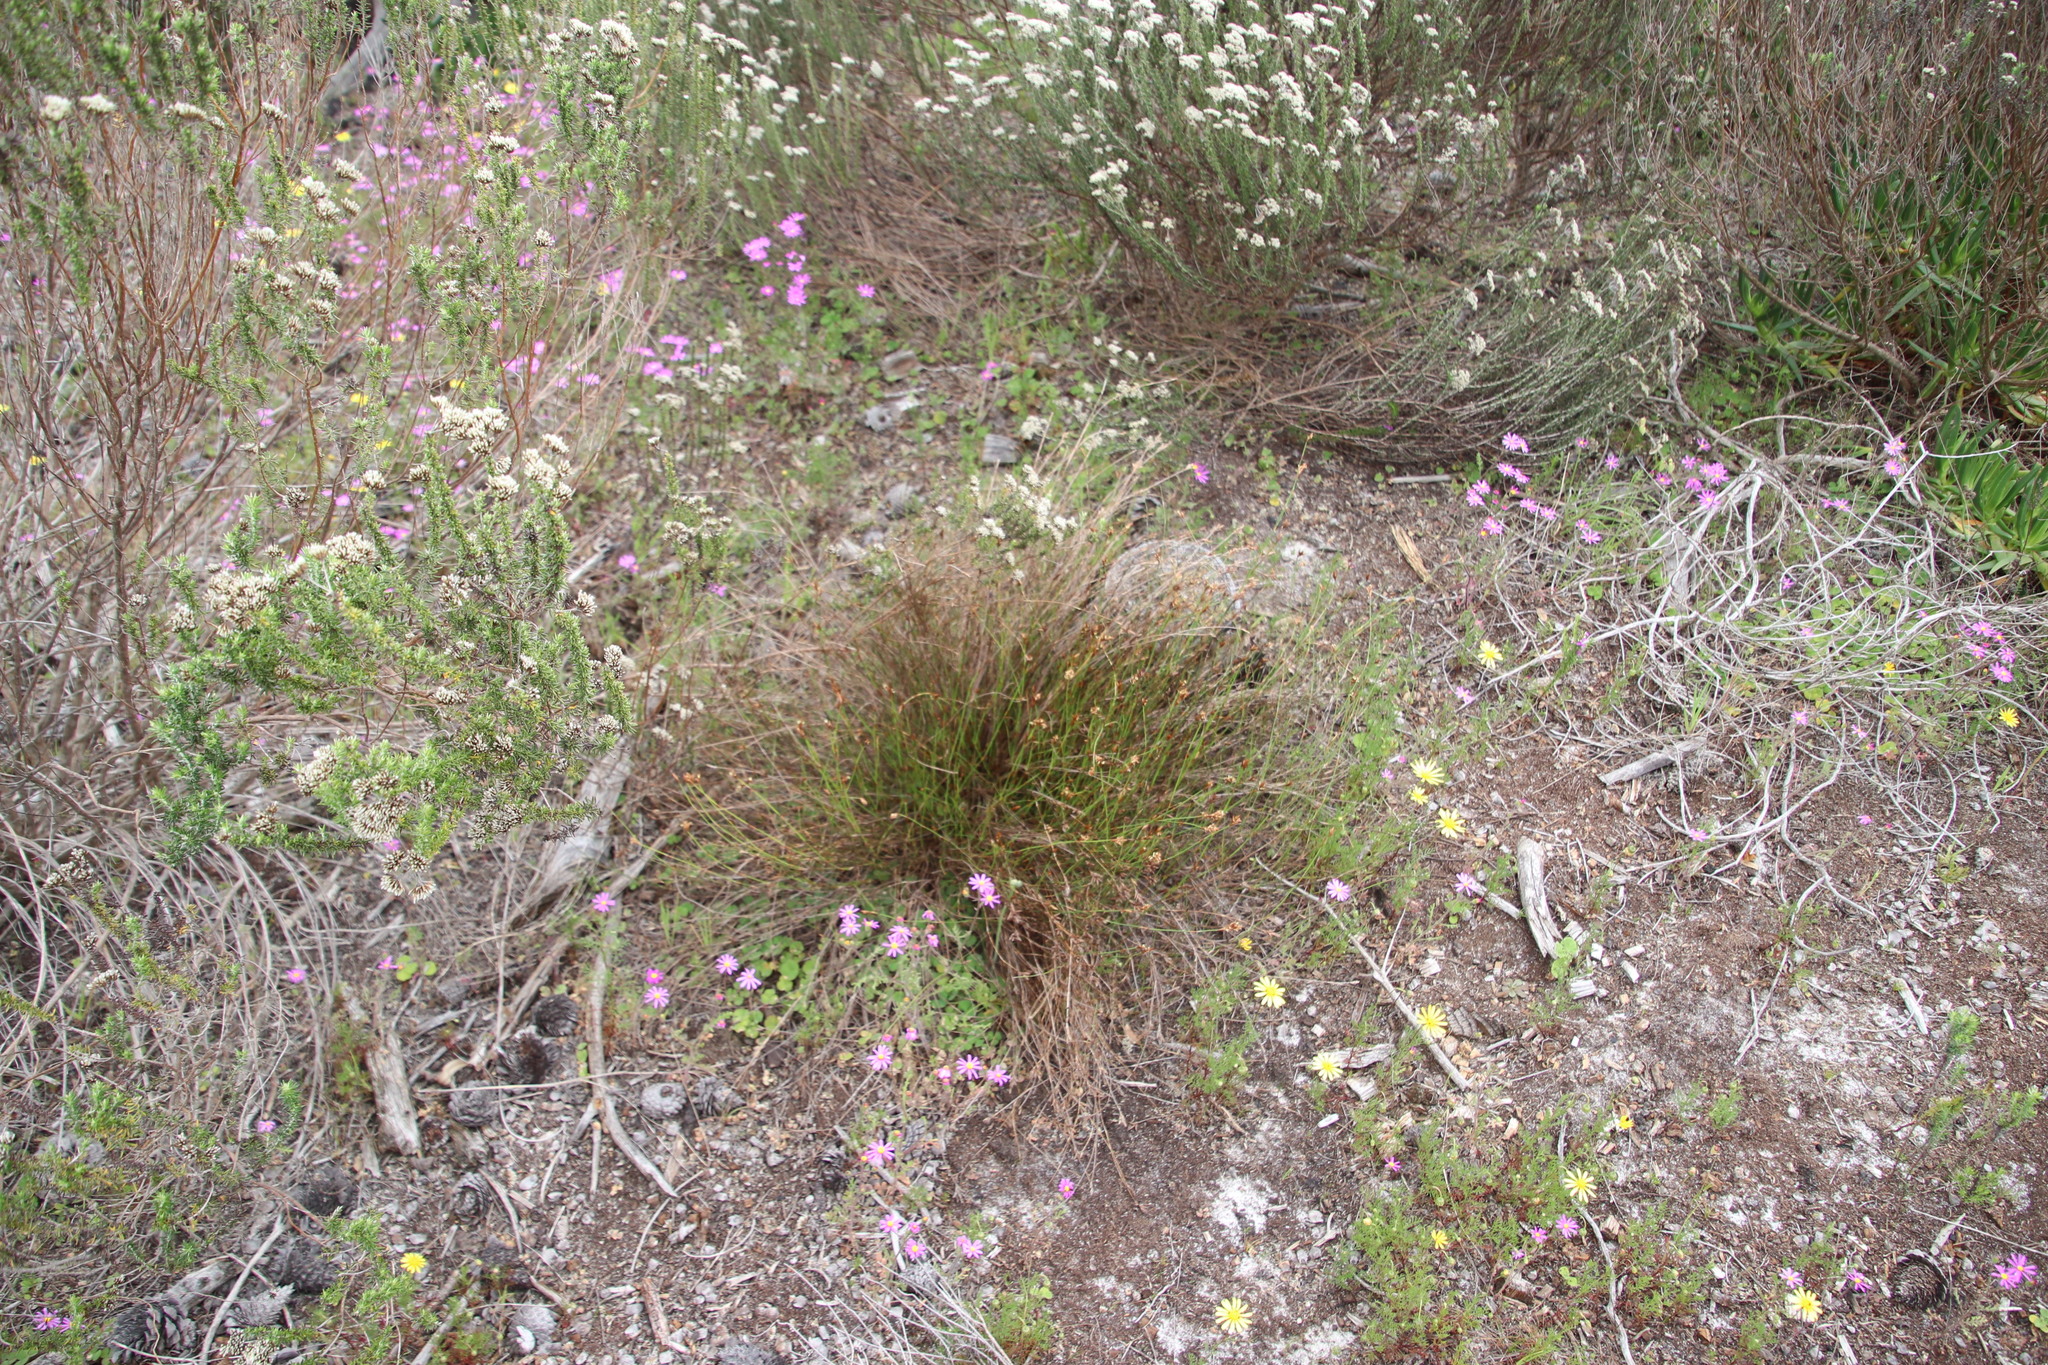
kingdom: Plantae
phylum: Tracheophyta
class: Liliopsida
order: Poales
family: Restionaceae
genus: Restio
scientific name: Restio capensis
